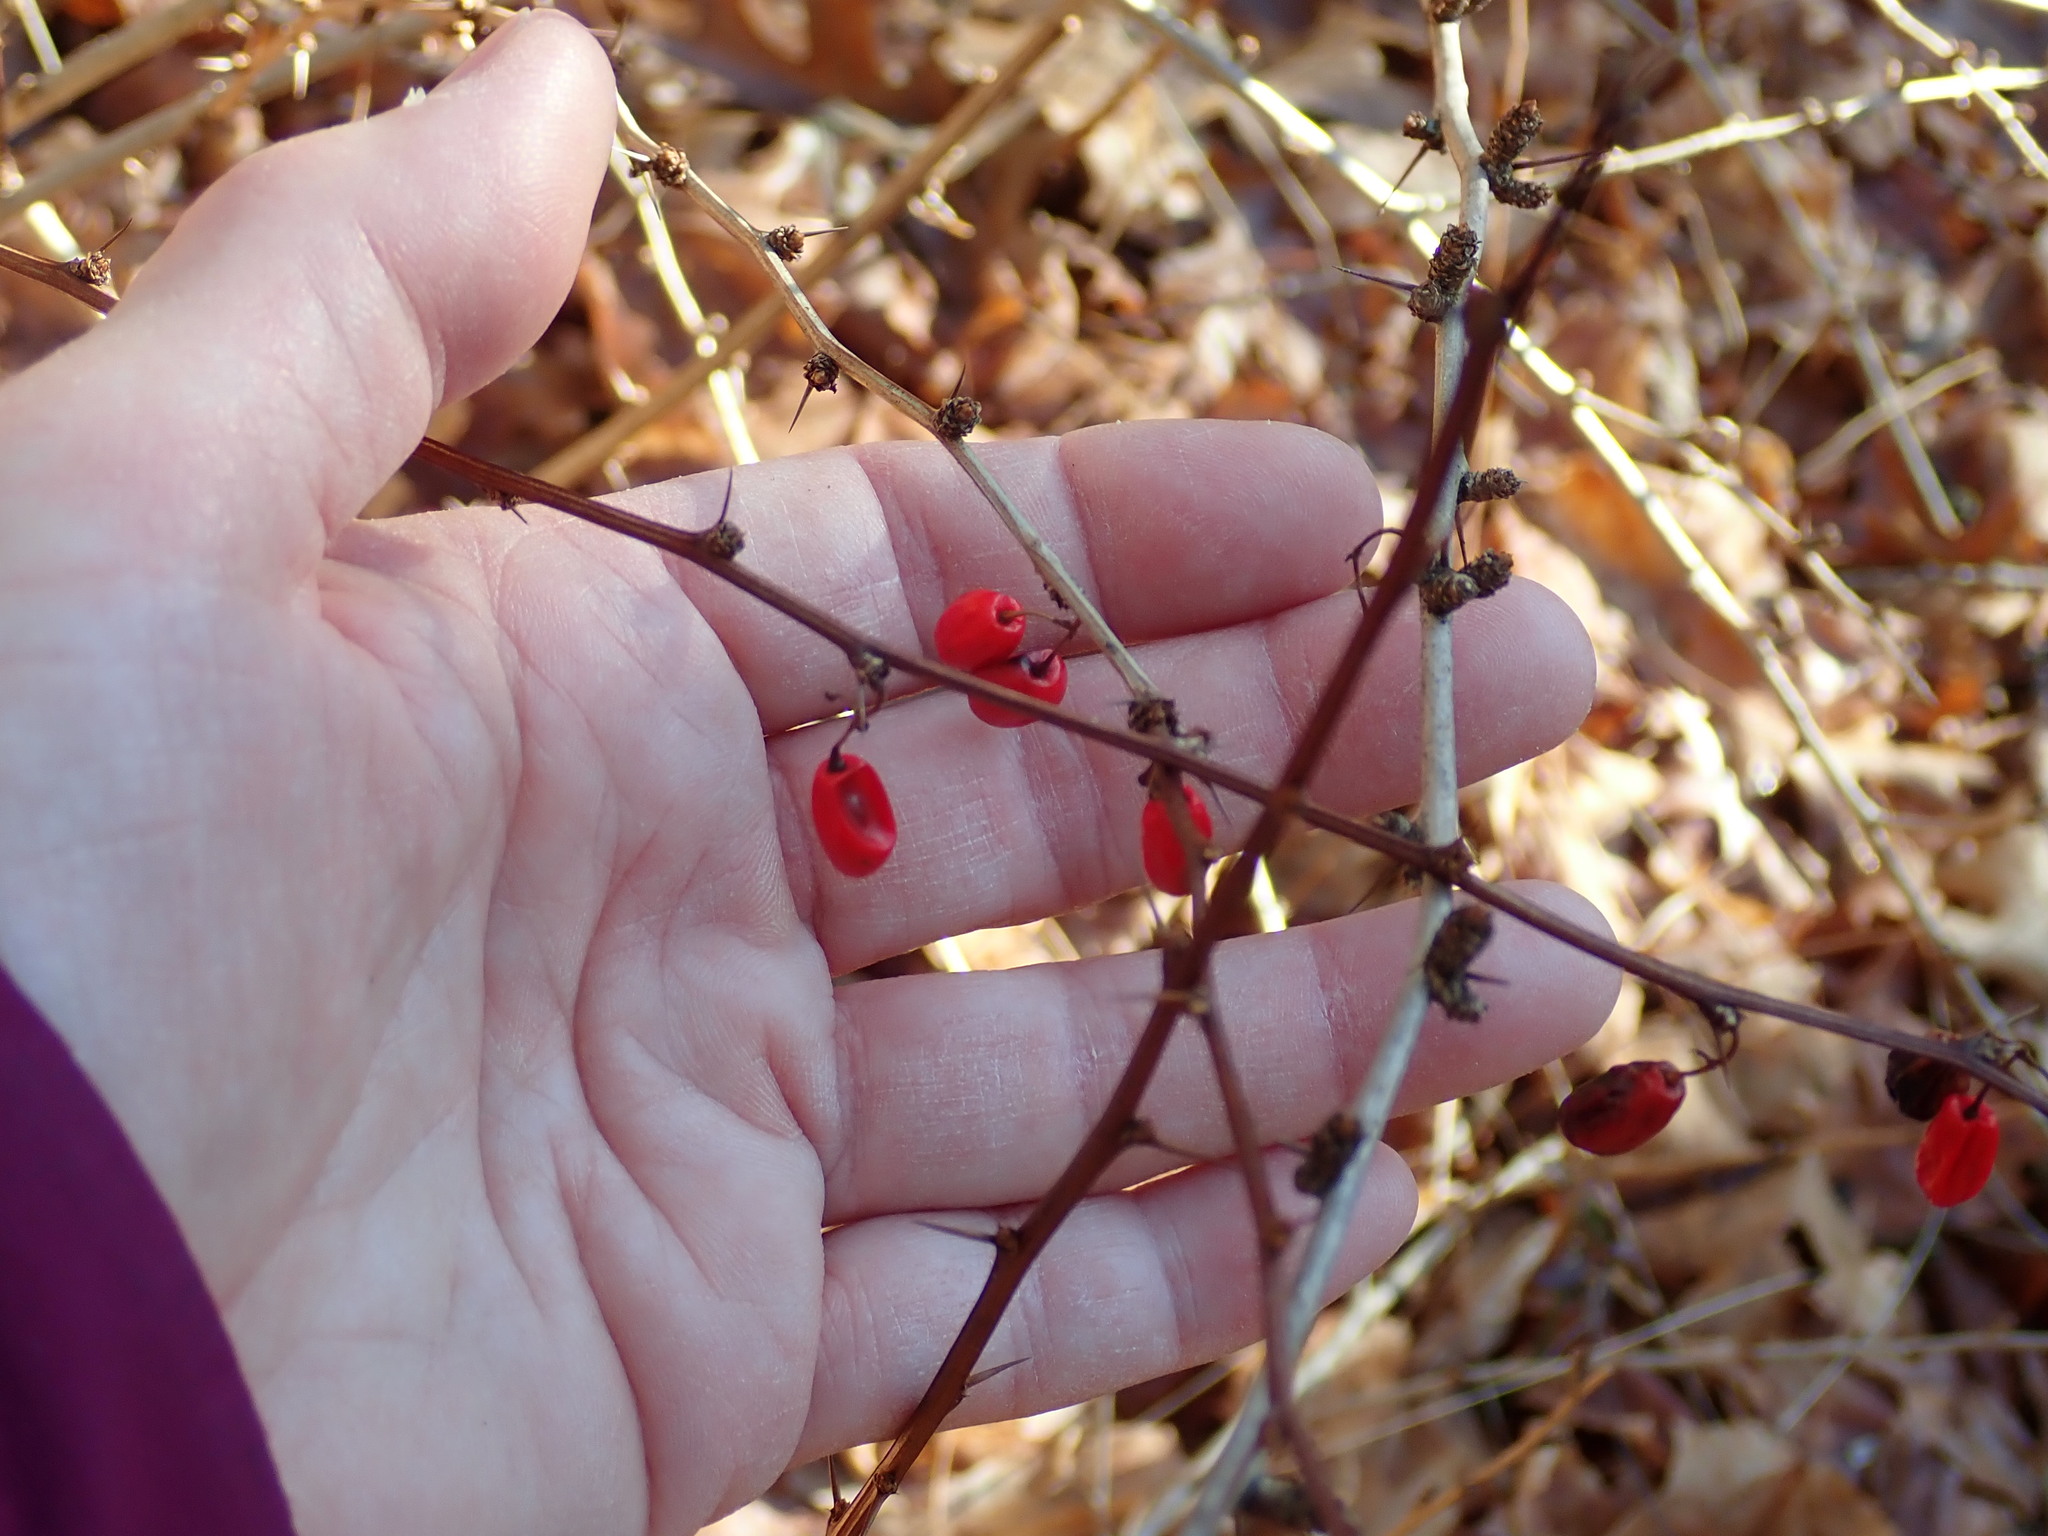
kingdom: Plantae
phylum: Tracheophyta
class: Magnoliopsida
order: Ranunculales
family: Berberidaceae
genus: Berberis
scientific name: Berberis thunbergii
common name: Japanese barberry
